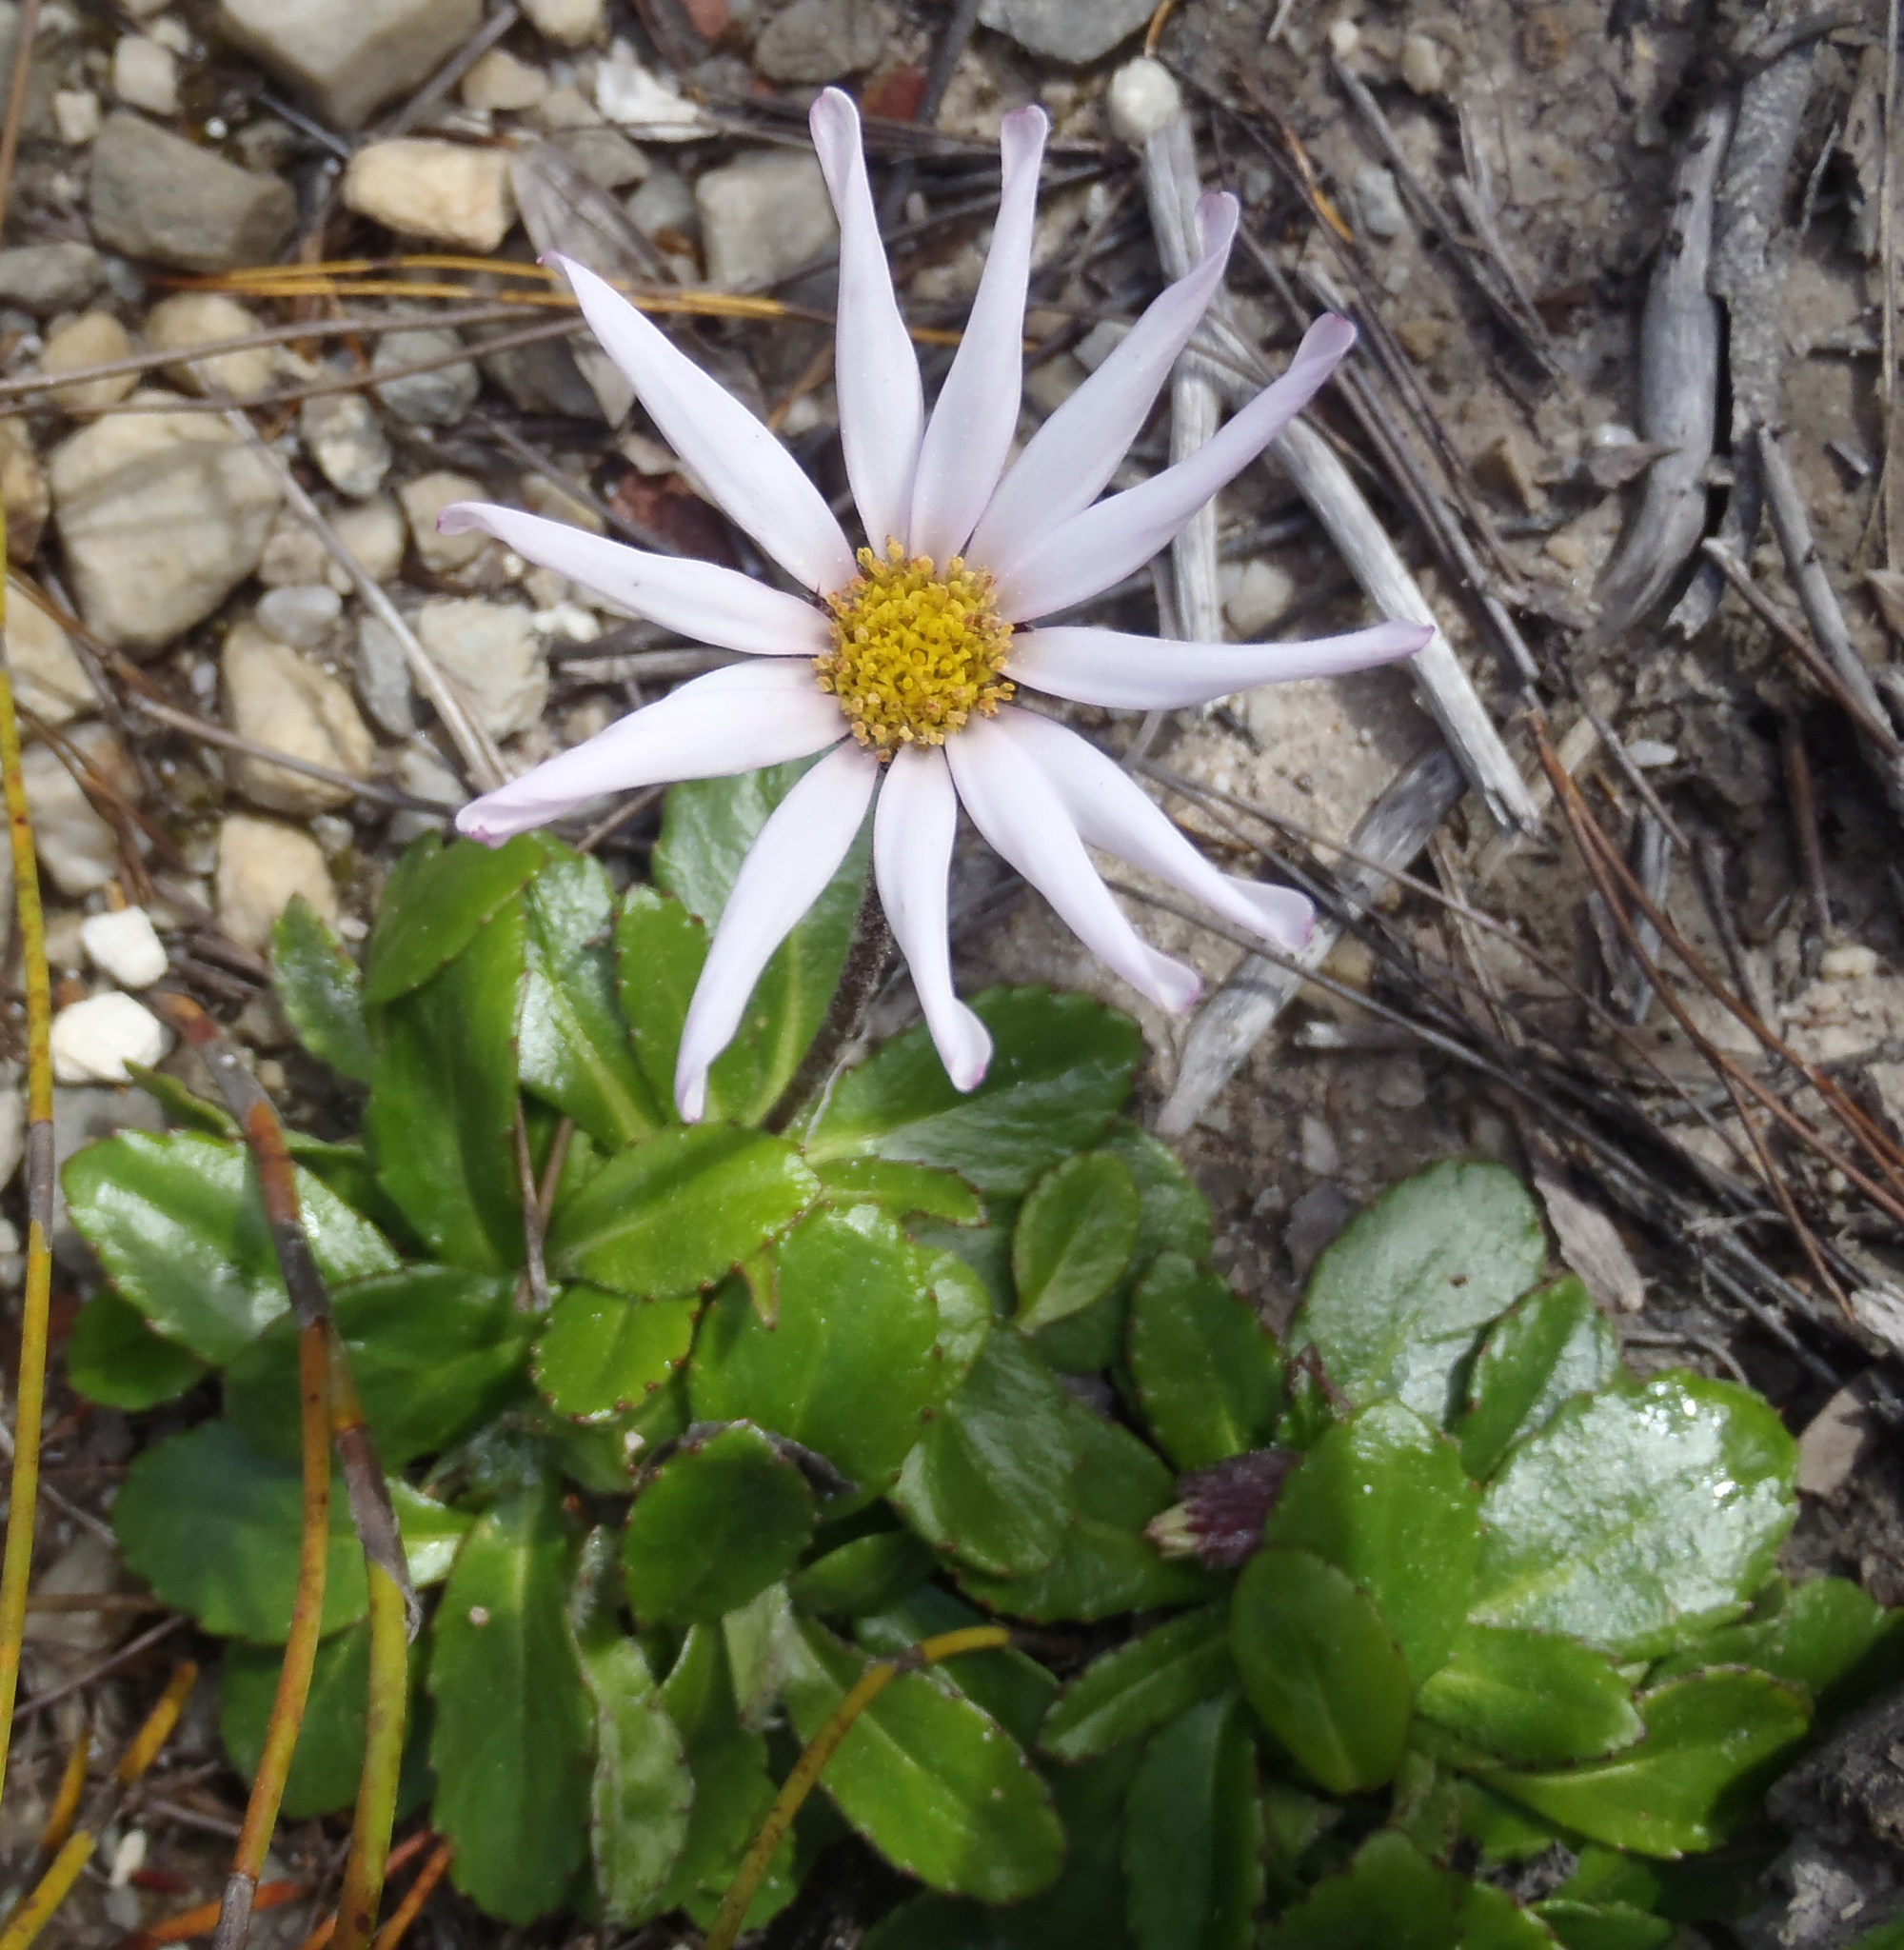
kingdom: Plantae
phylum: Tracheophyta
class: Magnoliopsida
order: Asterales
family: Asteraceae
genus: Zyrphelis
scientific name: Zyrphelis crenata
